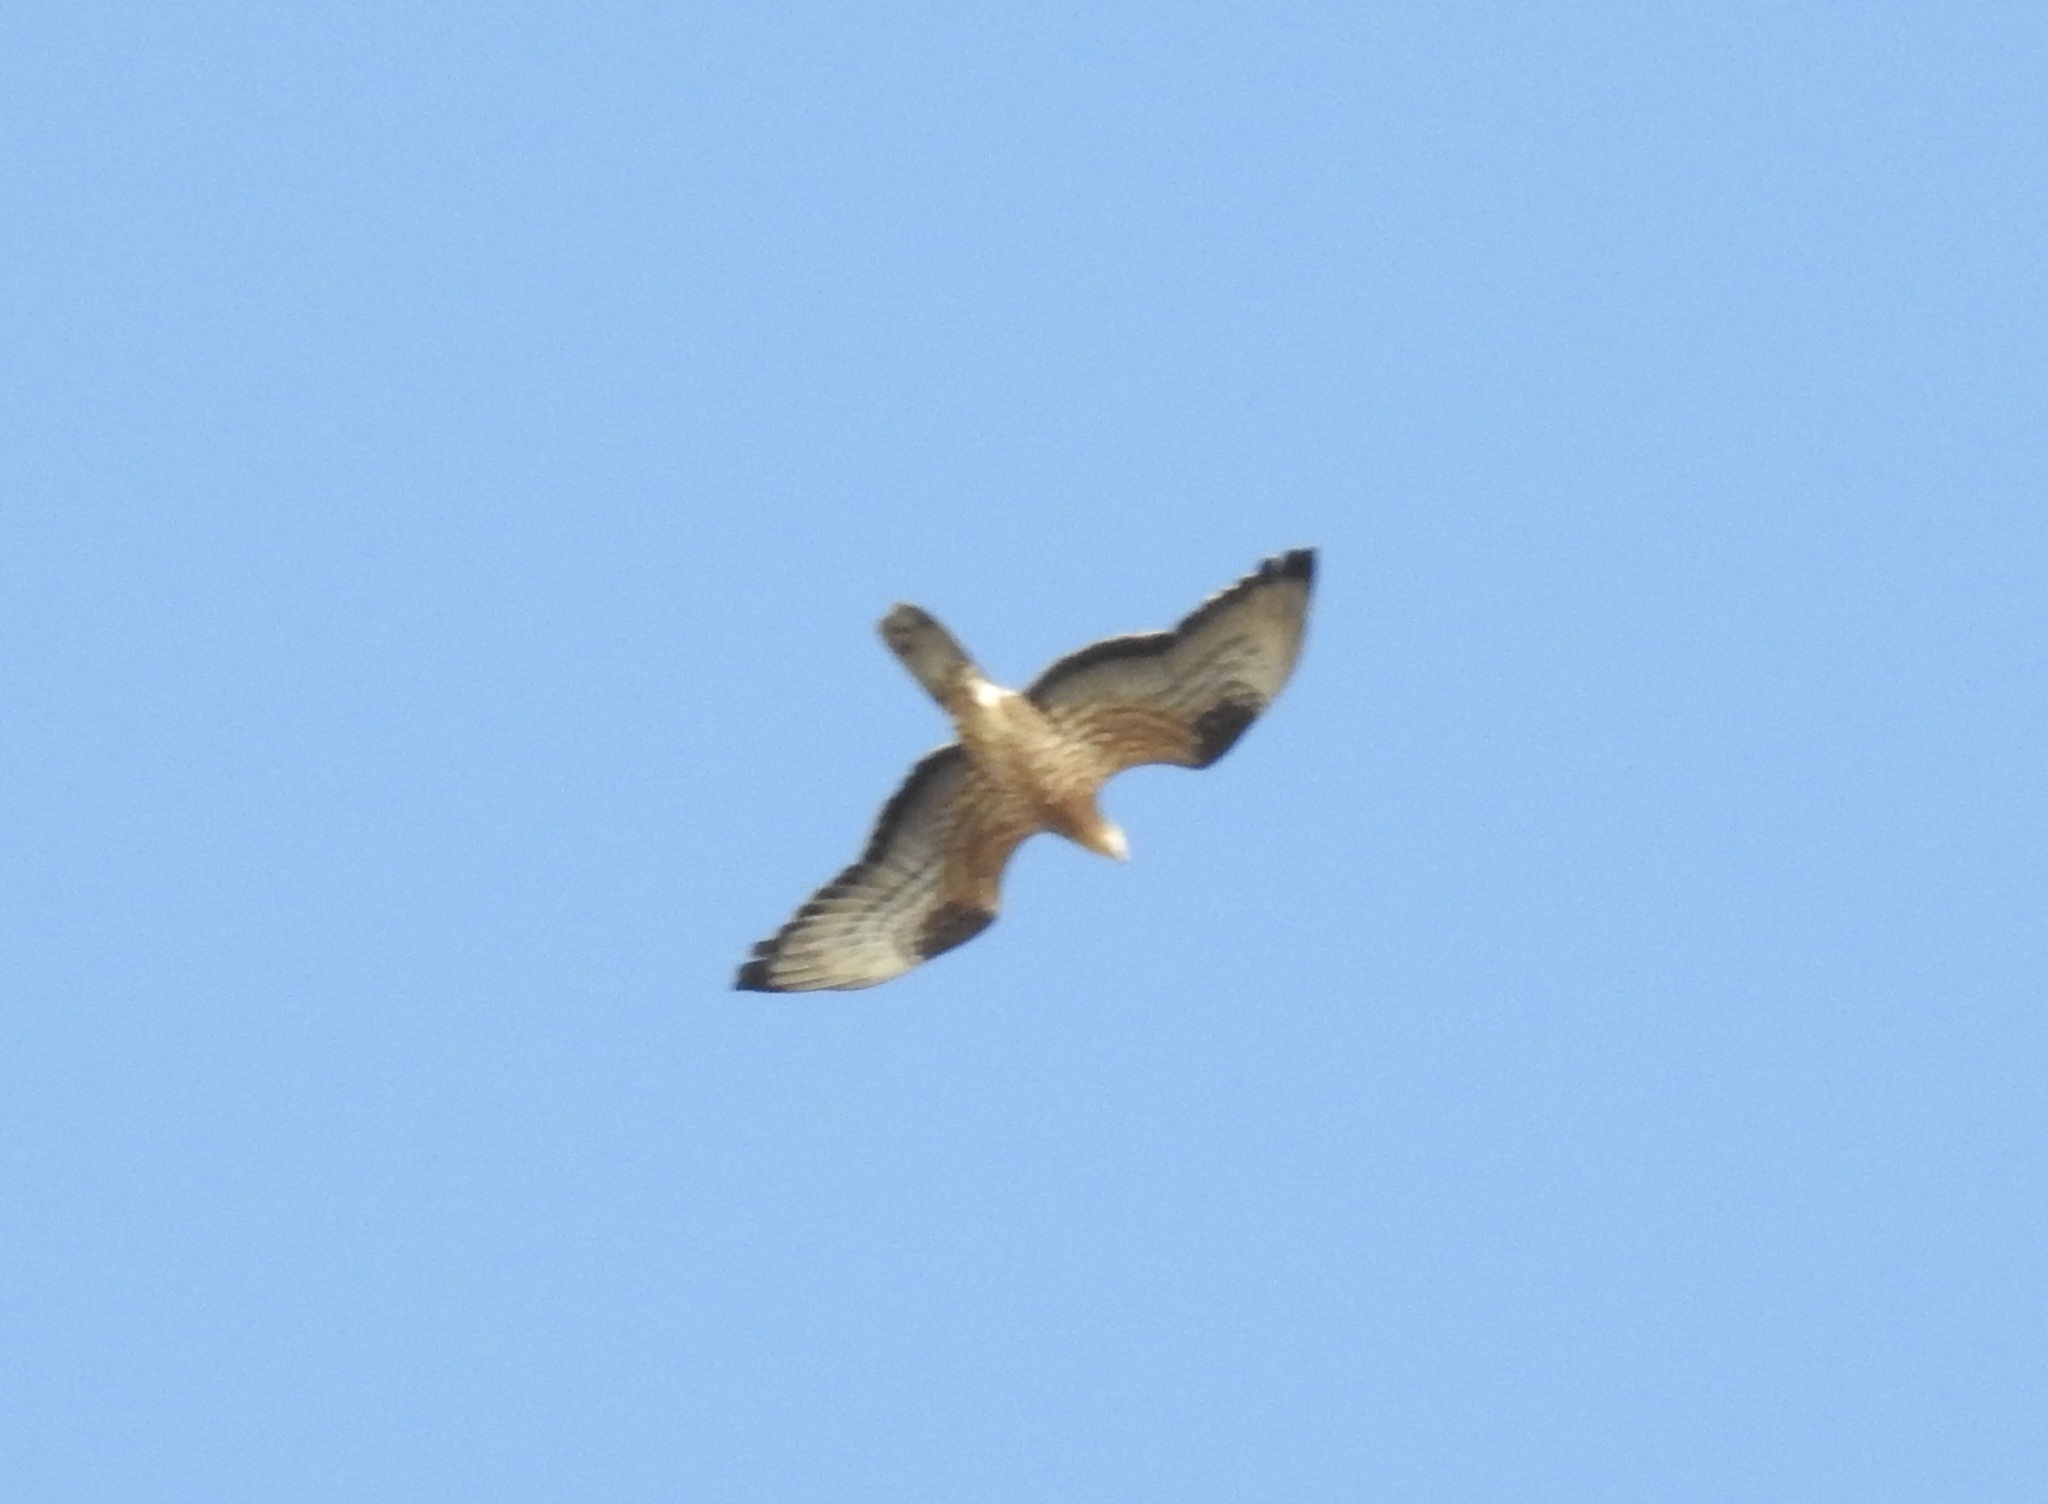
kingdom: Animalia
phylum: Chordata
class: Aves
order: Accipitriformes
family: Accipitridae
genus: Pernis
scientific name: Pernis apivorus
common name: European honey buzzard
